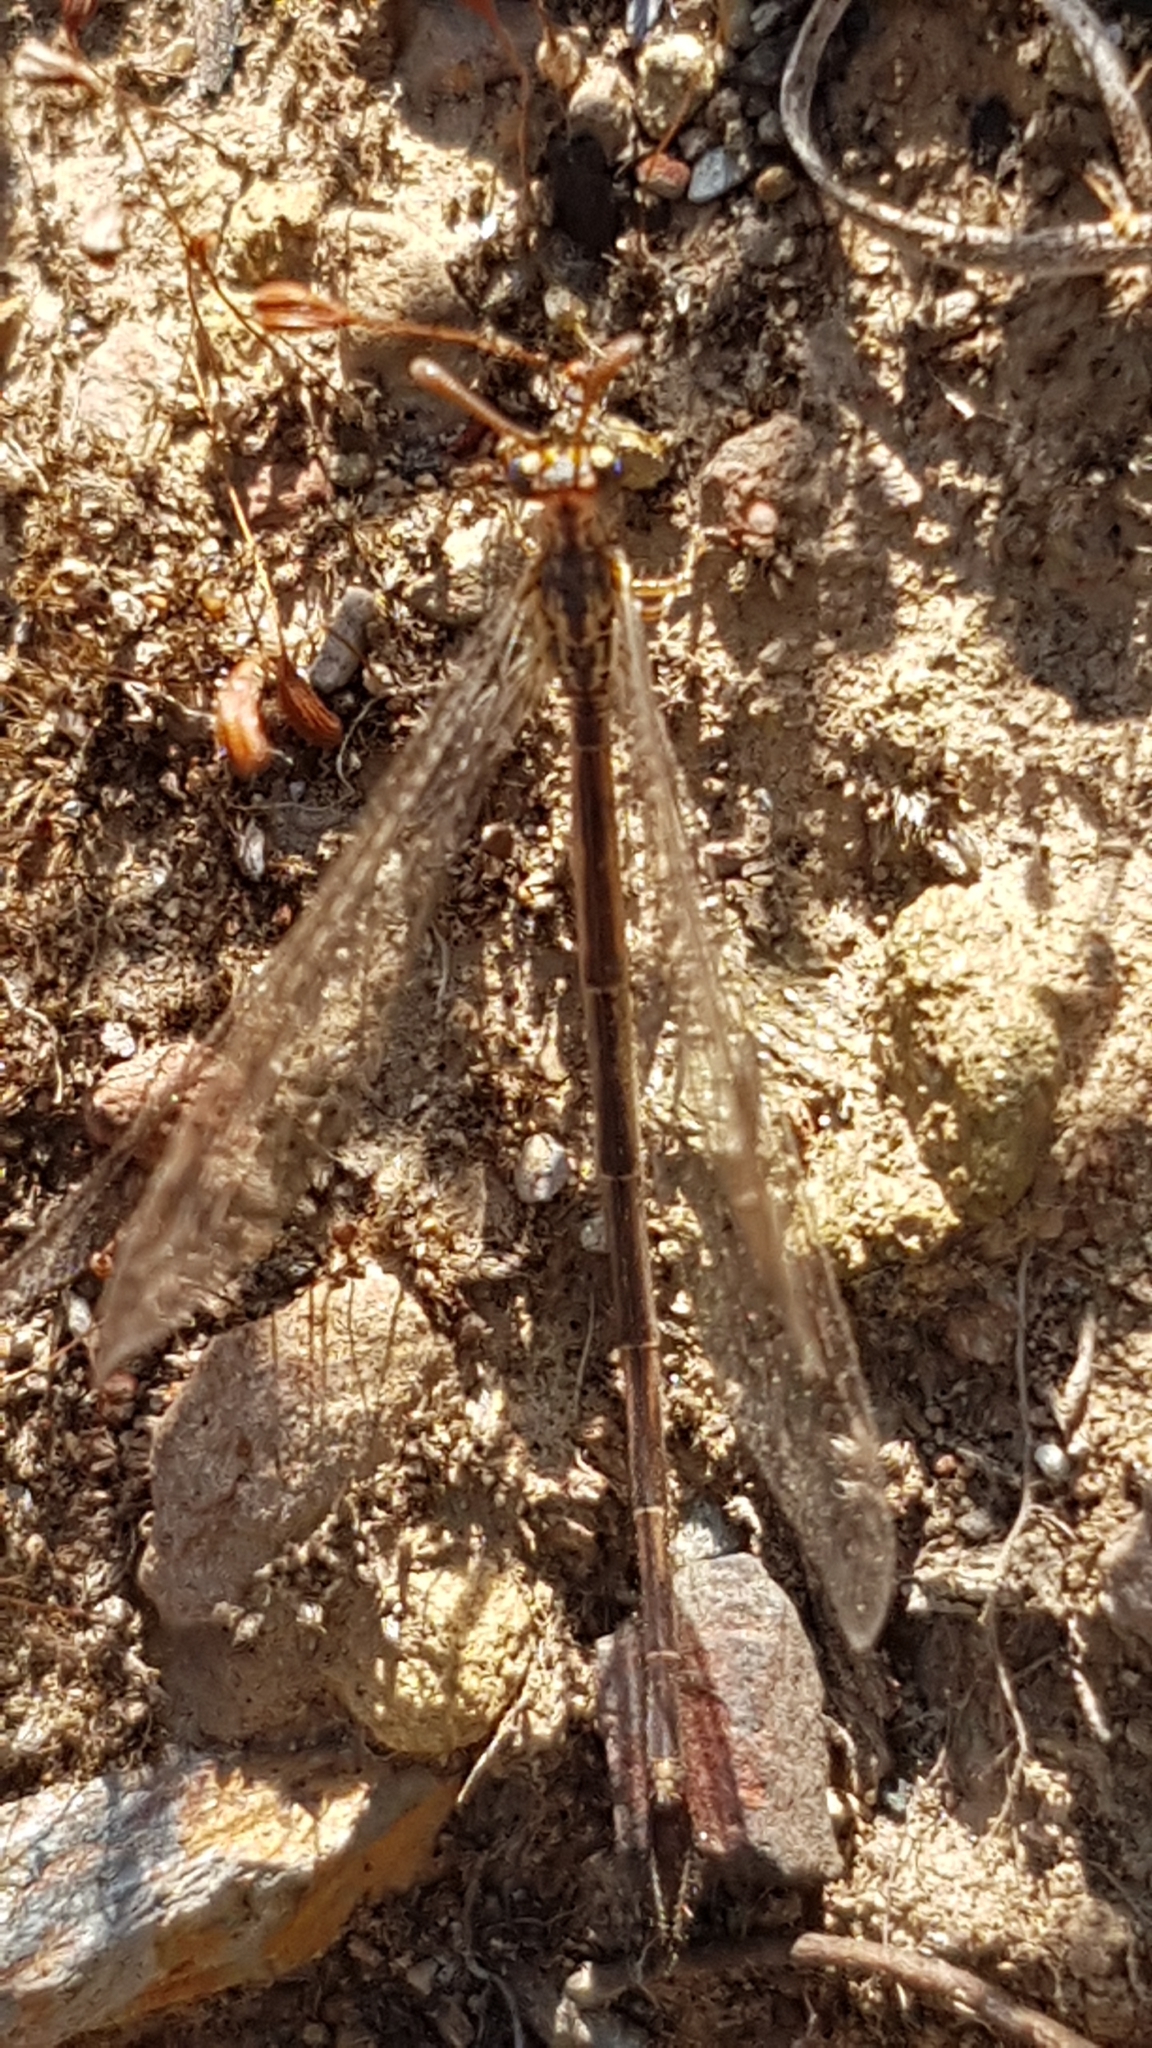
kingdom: Animalia
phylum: Arthropoda
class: Insecta
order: Neuroptera
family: Myrmeleontidae
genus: Macronemurus
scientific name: Macronemurus appendiculatus
